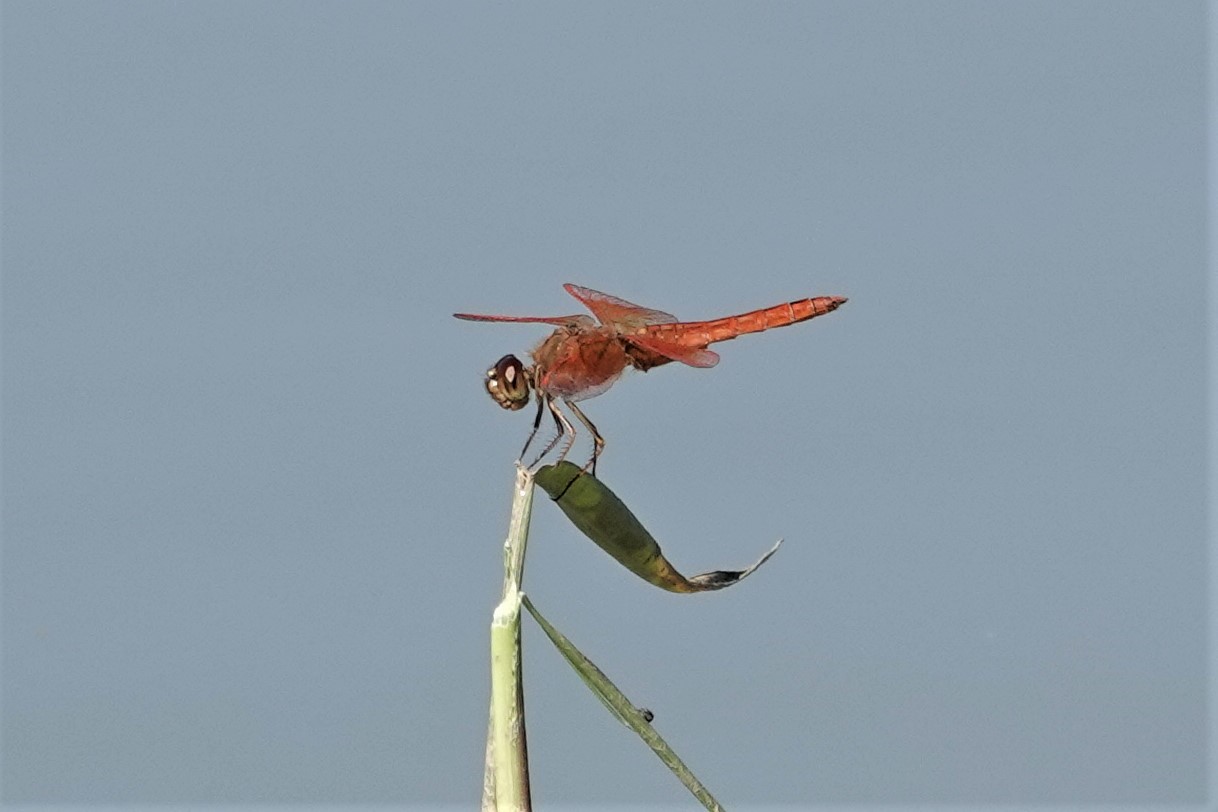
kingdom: Animalia
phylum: Arthropoda
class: Insecta
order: Odonata
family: Libellulidae
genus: Brachythemis
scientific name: Brachythemis contaminata
